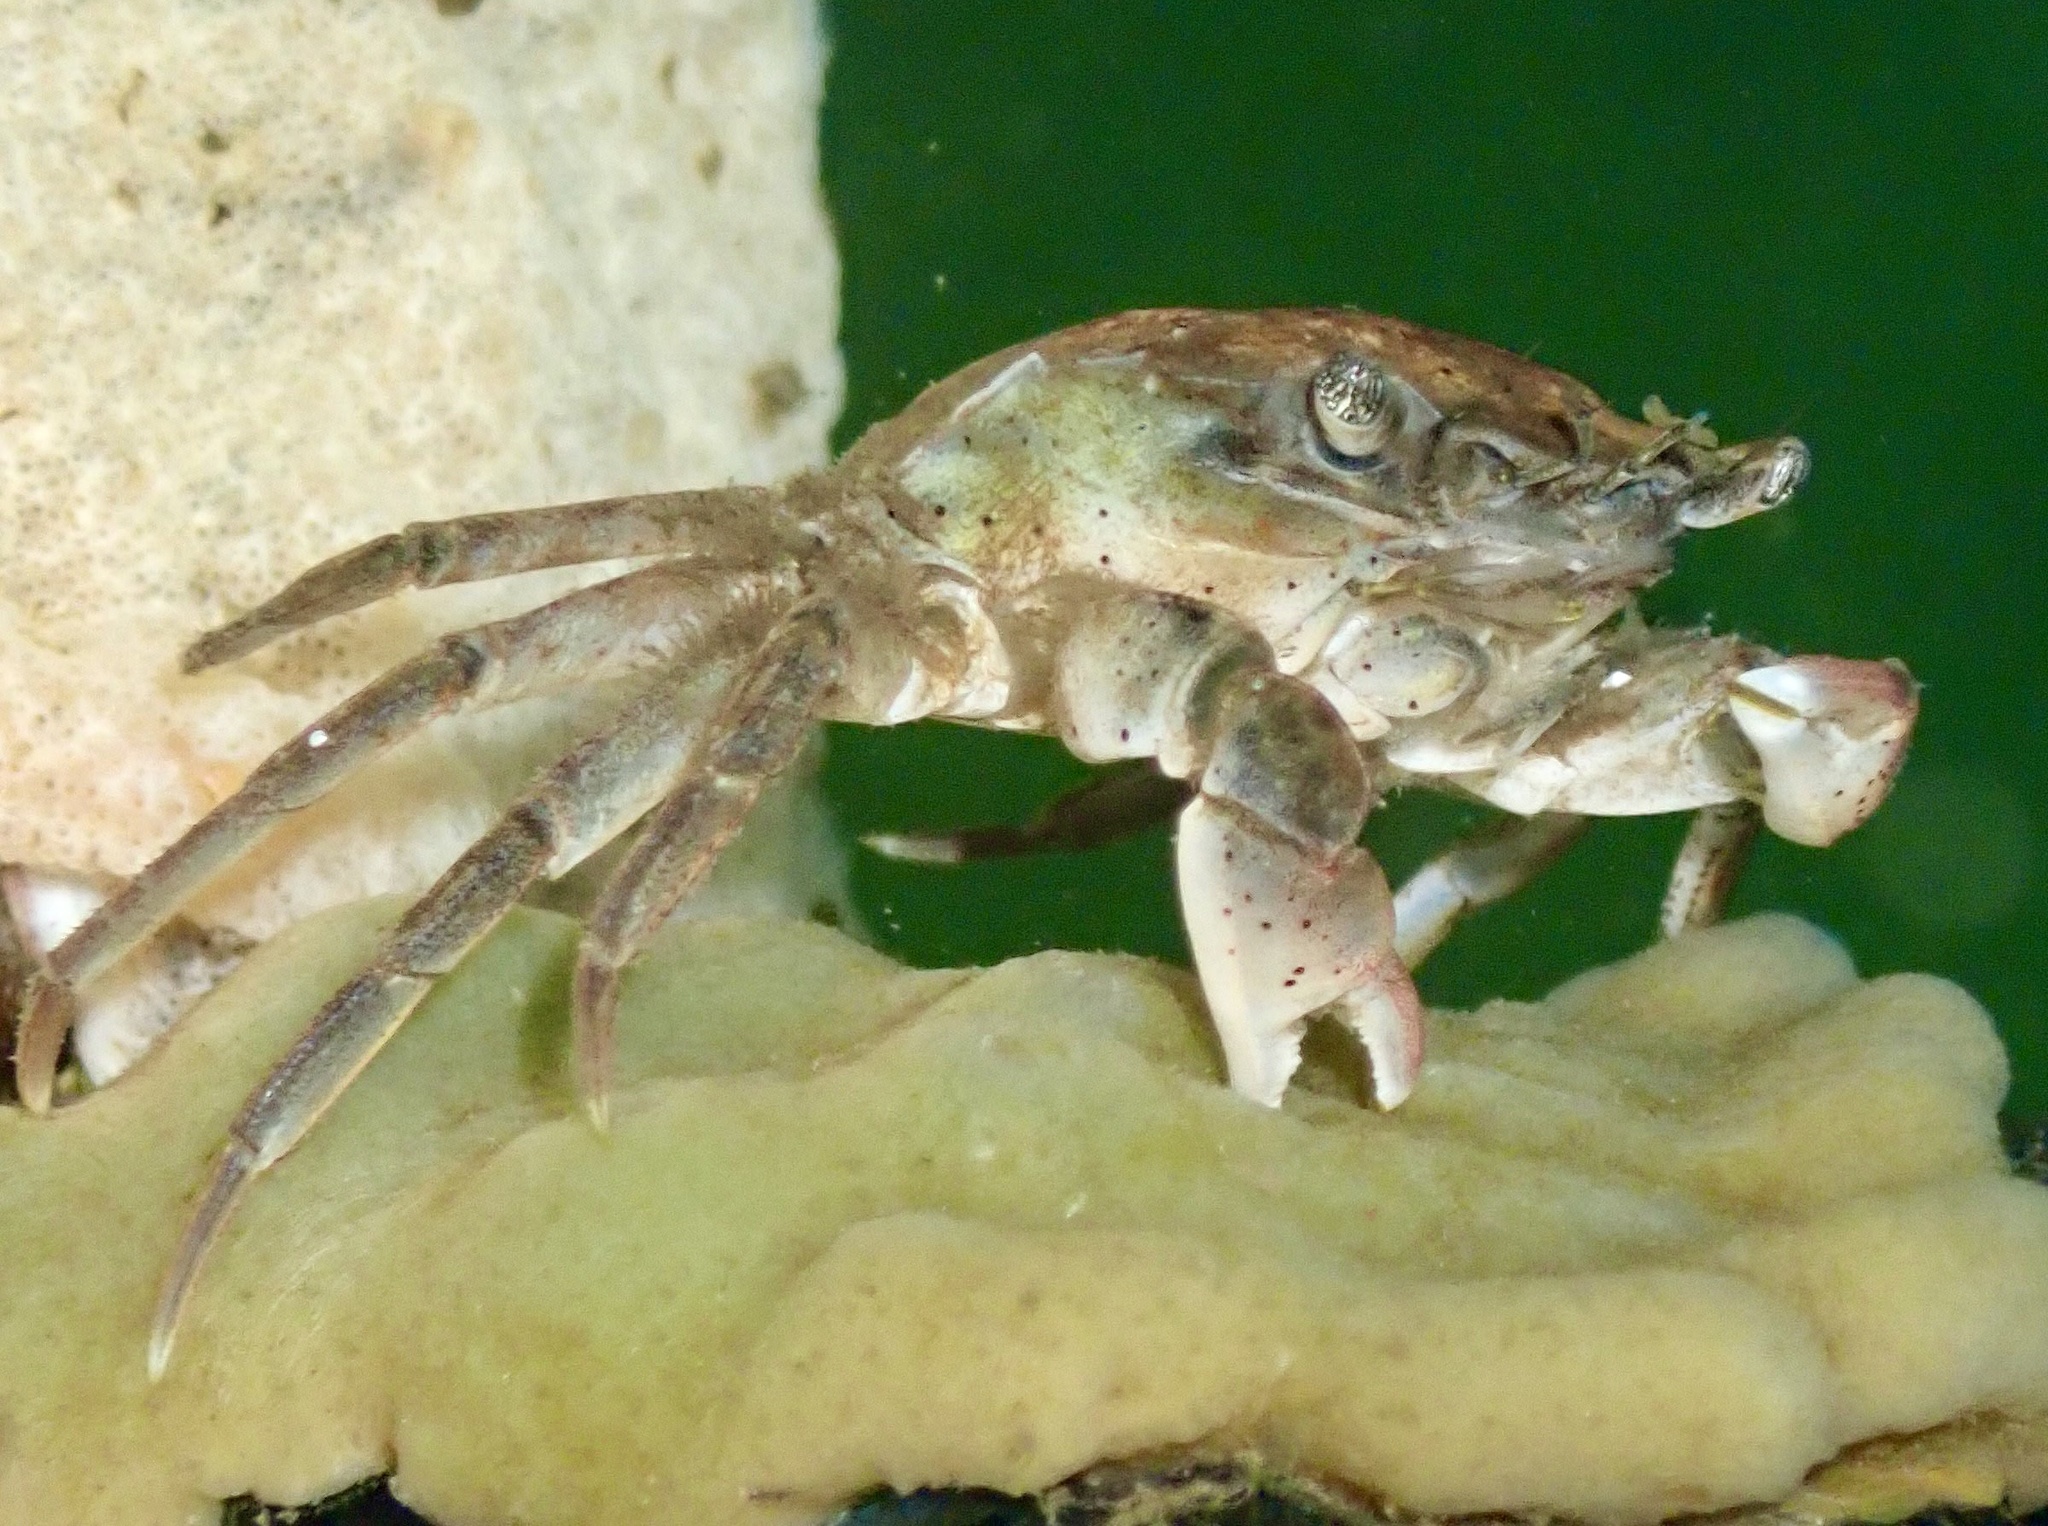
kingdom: Animalia
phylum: Arthropoda
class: Malacostraca
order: Decapoda
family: Varunidae
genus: Hemigrapsus
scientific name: Hemigrapsus takanoi
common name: Asian brush crab
